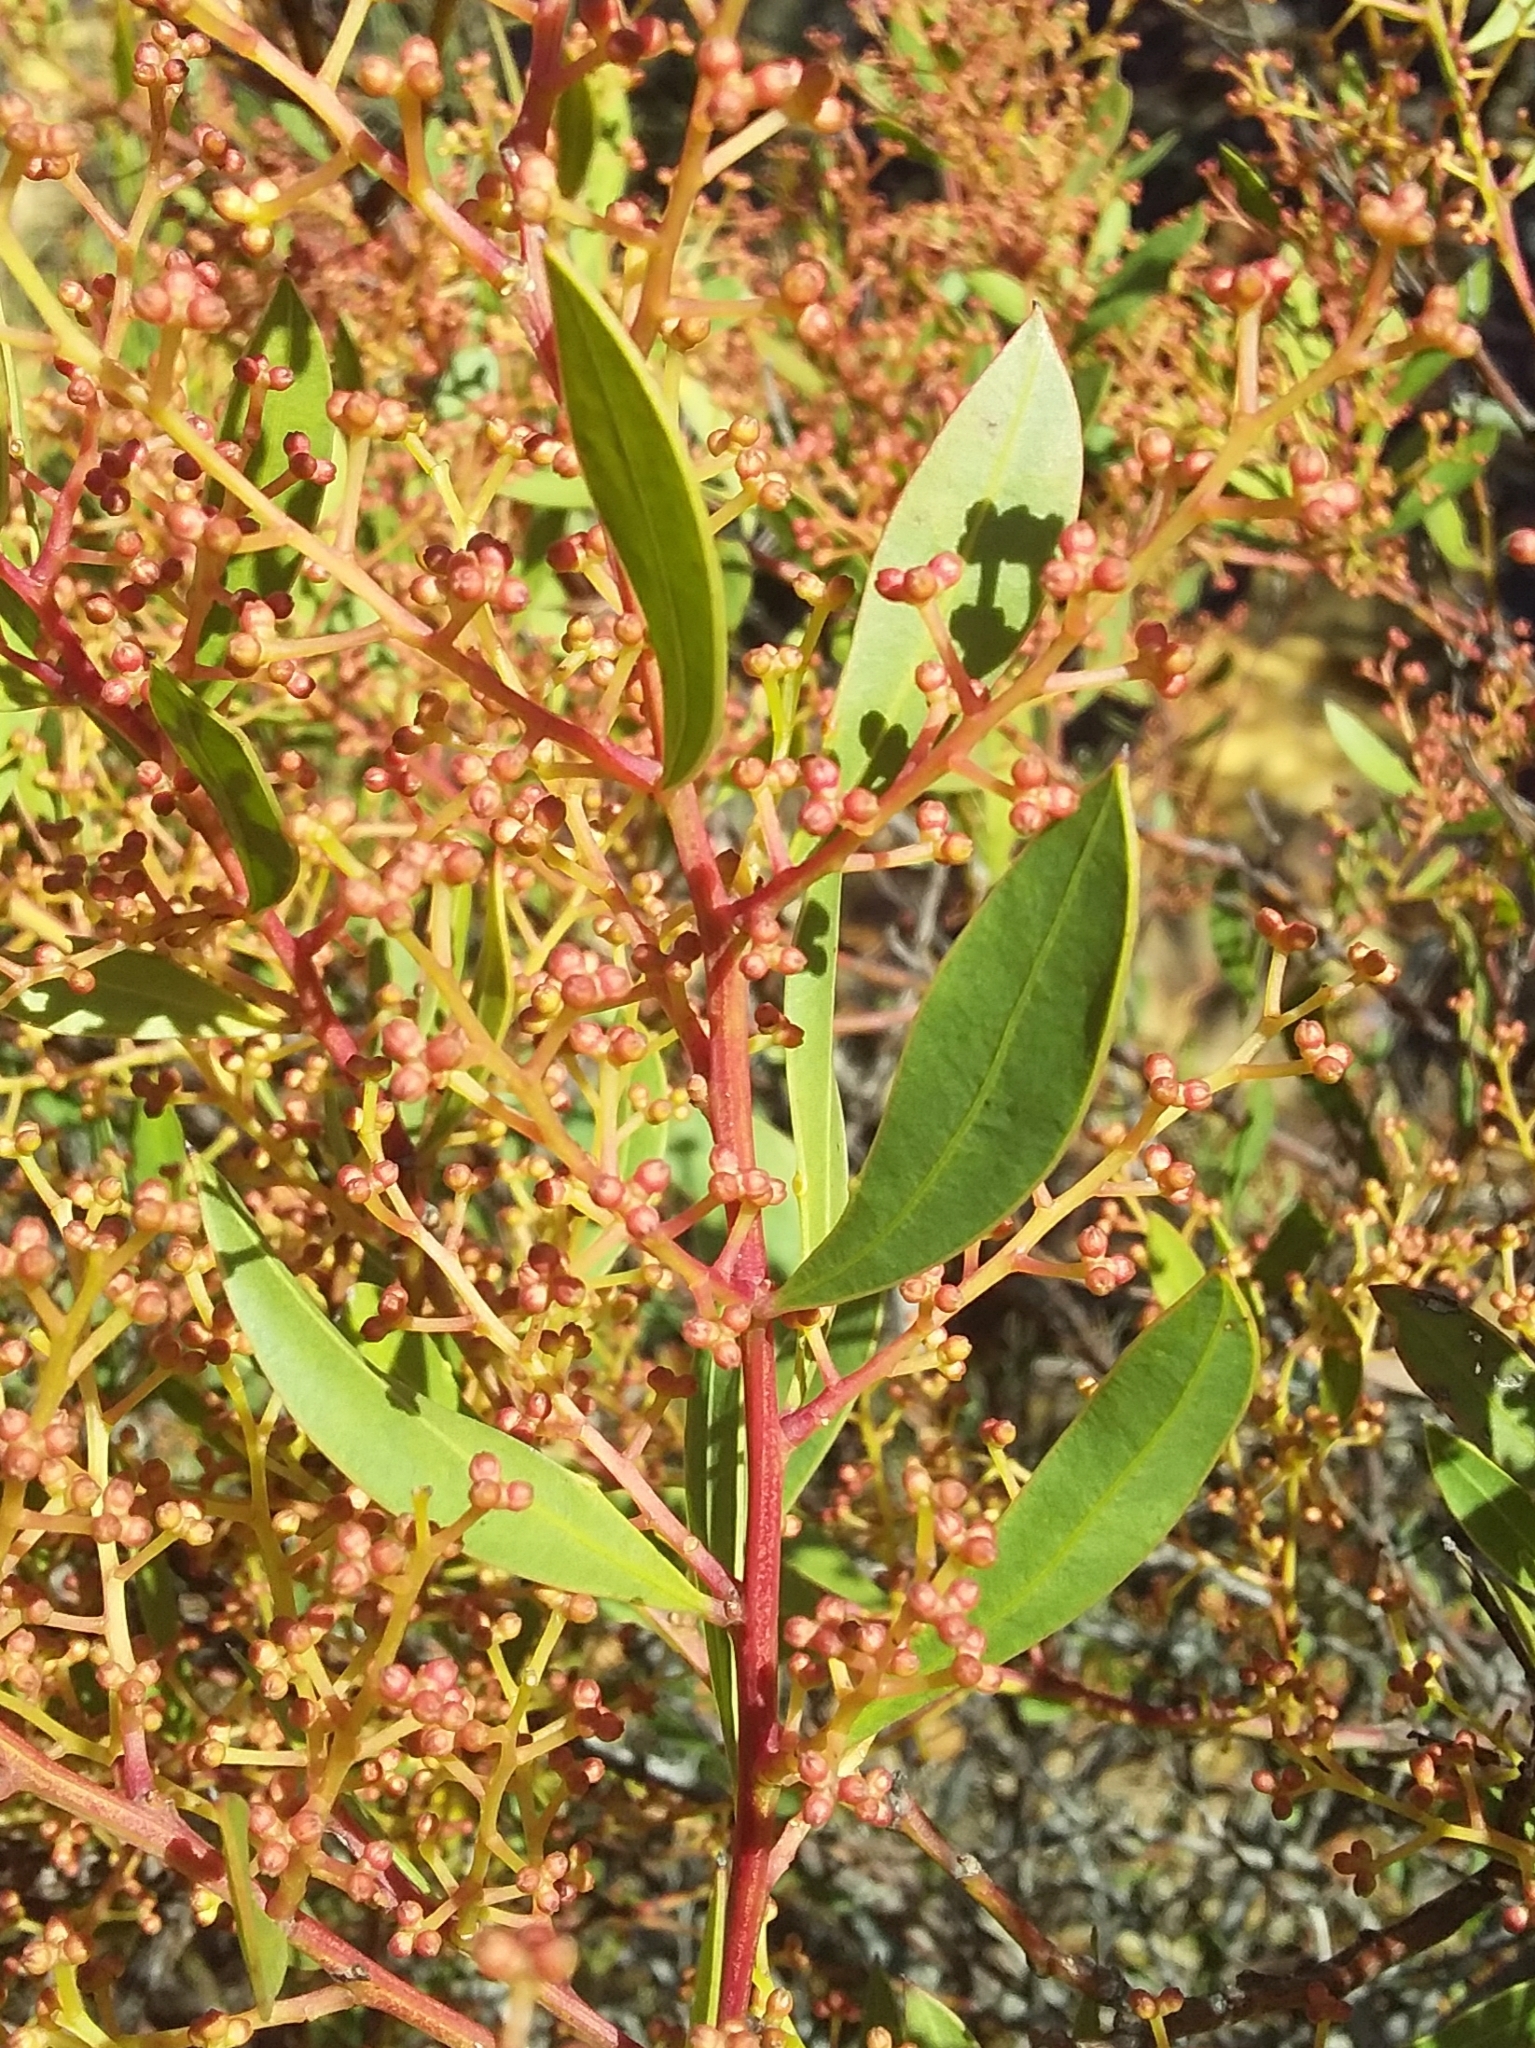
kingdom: Plantae
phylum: Tracheophyta
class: Magnoliopsida
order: Fabales
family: Fabaceae
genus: Acacia
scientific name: Acacia myrtifolia
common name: Myrtle wattle
